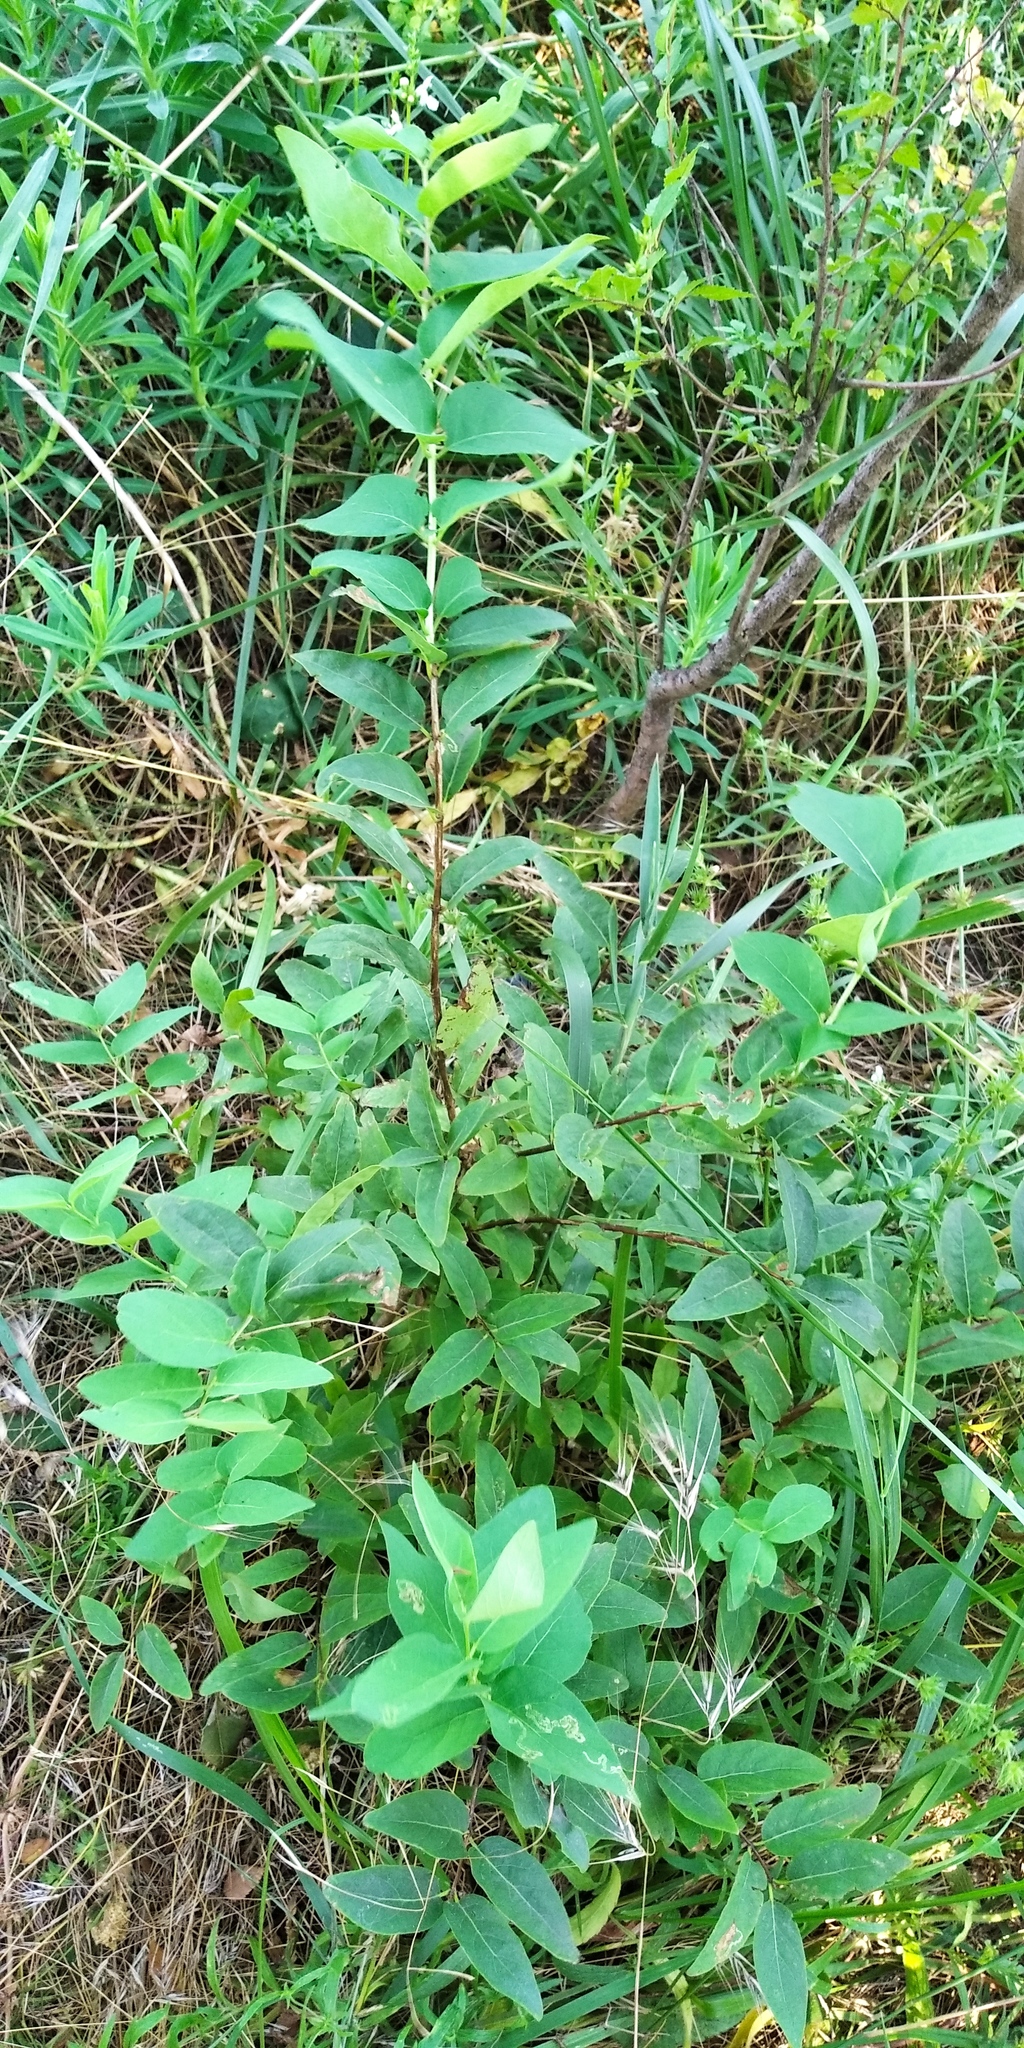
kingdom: Plantae
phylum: Tracheophyta
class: Magnoliopsida
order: Dipsacales
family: Caprifoliaceae
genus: Lonicera
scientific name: Lonicera tatarica
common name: Tatarian honeysuckle
